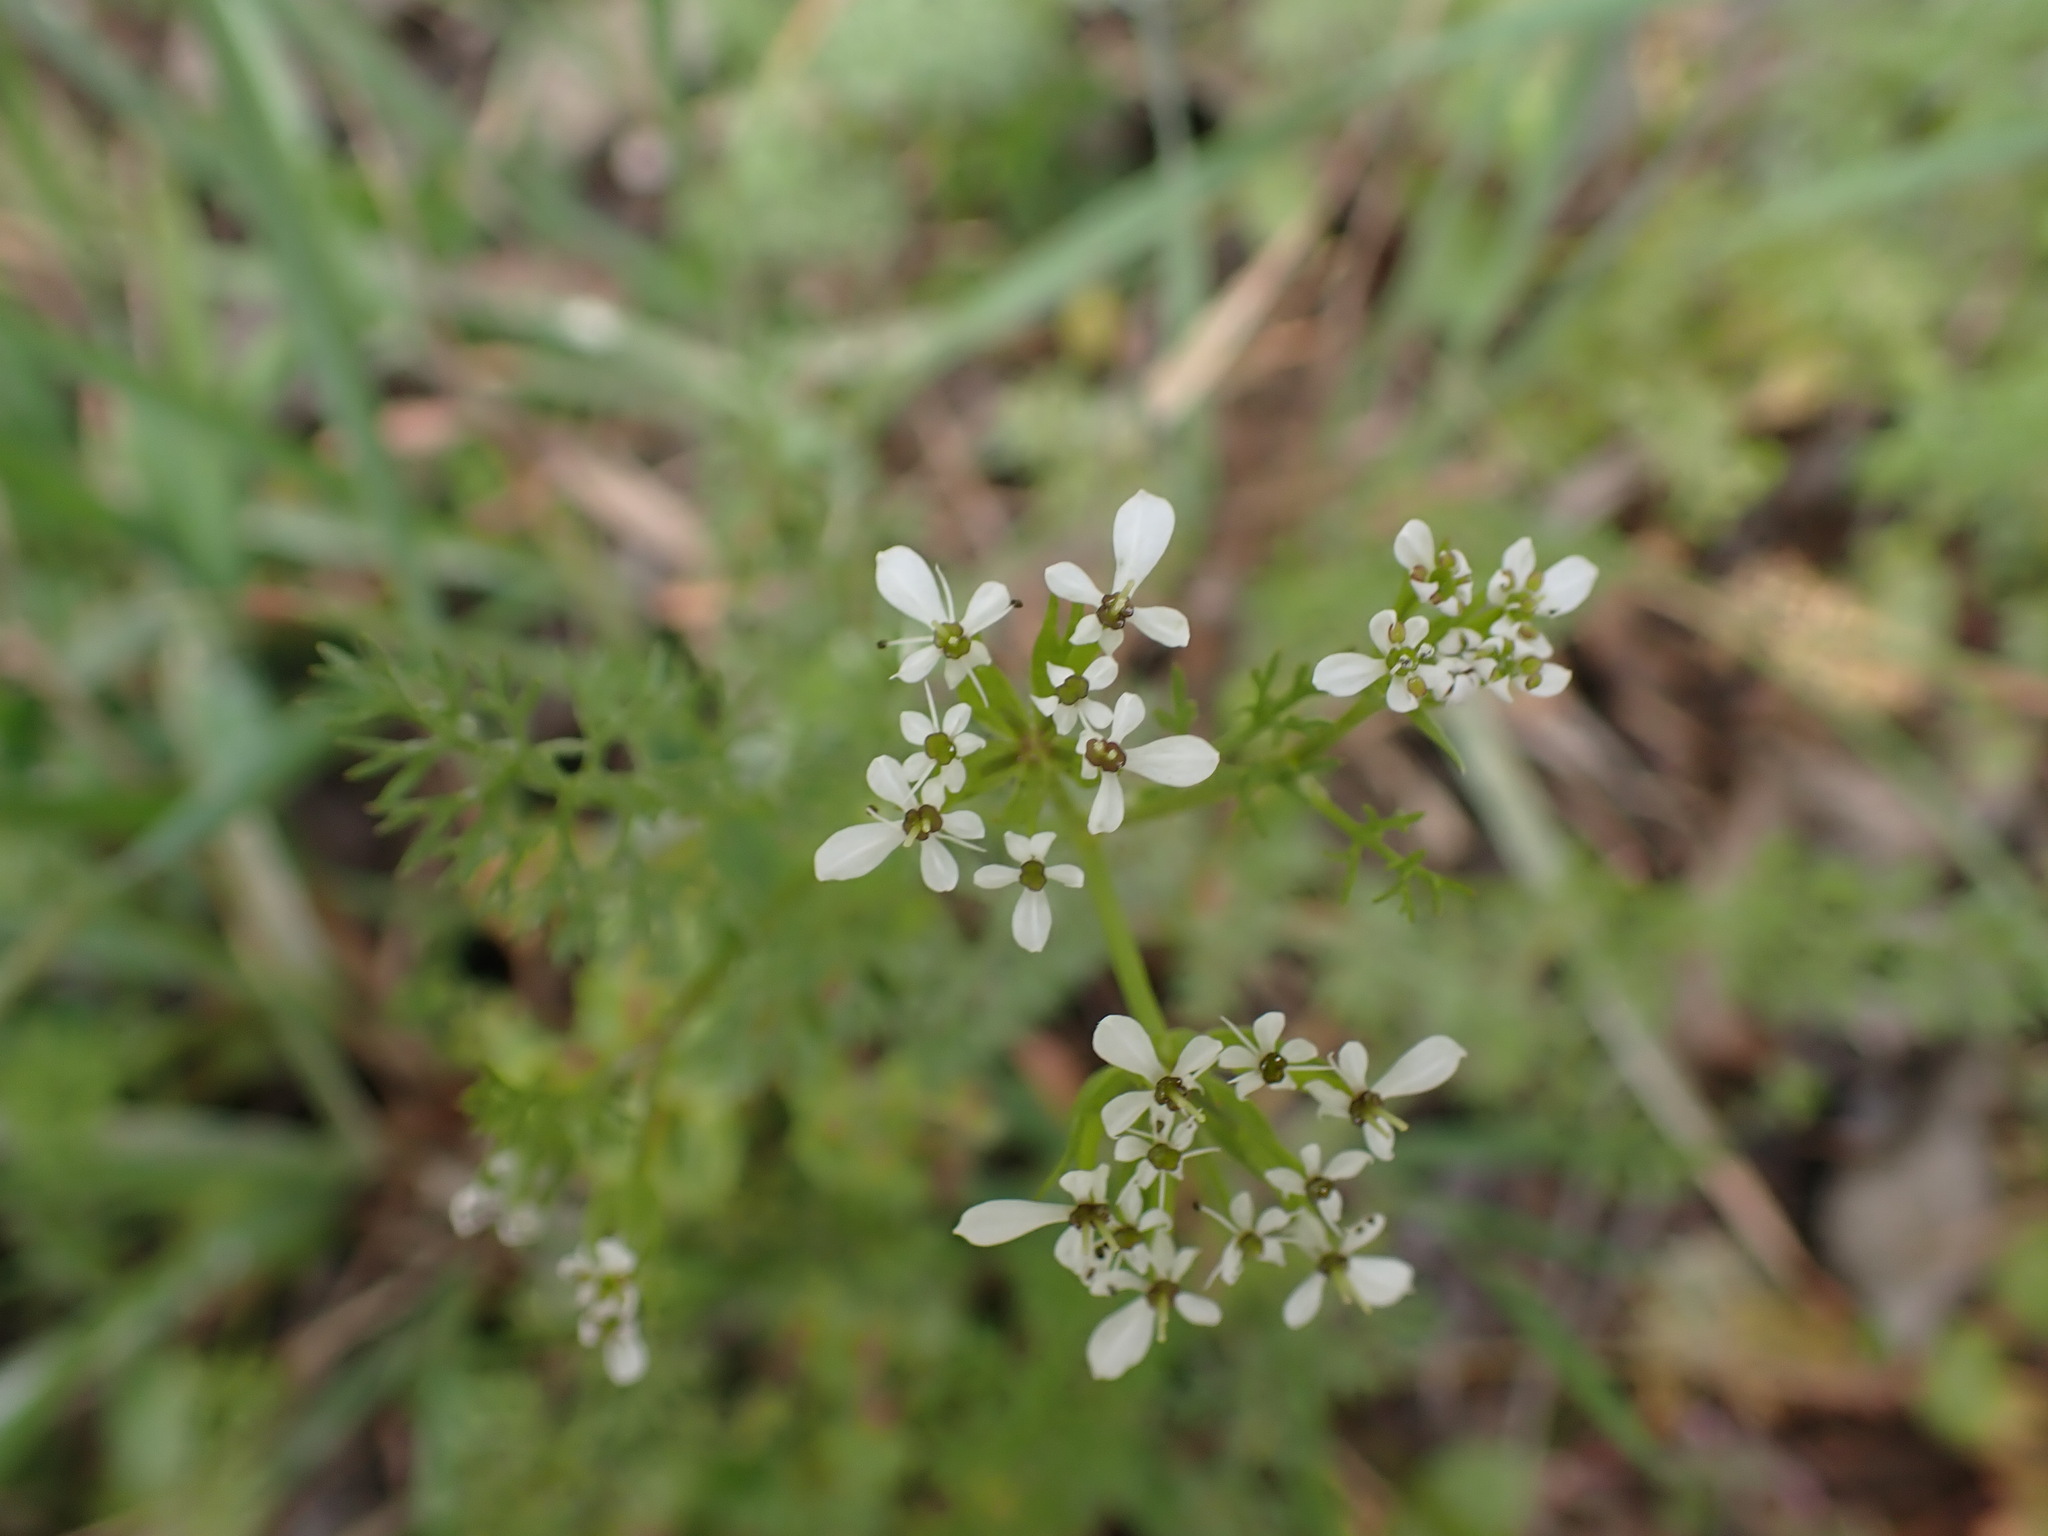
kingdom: Plantae
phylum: Tracheophyta
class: Magnoliopsida
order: Apiales
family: Apiaceae
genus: Scandix
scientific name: Scandix pecten-veneris
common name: Shepherd's-needle
